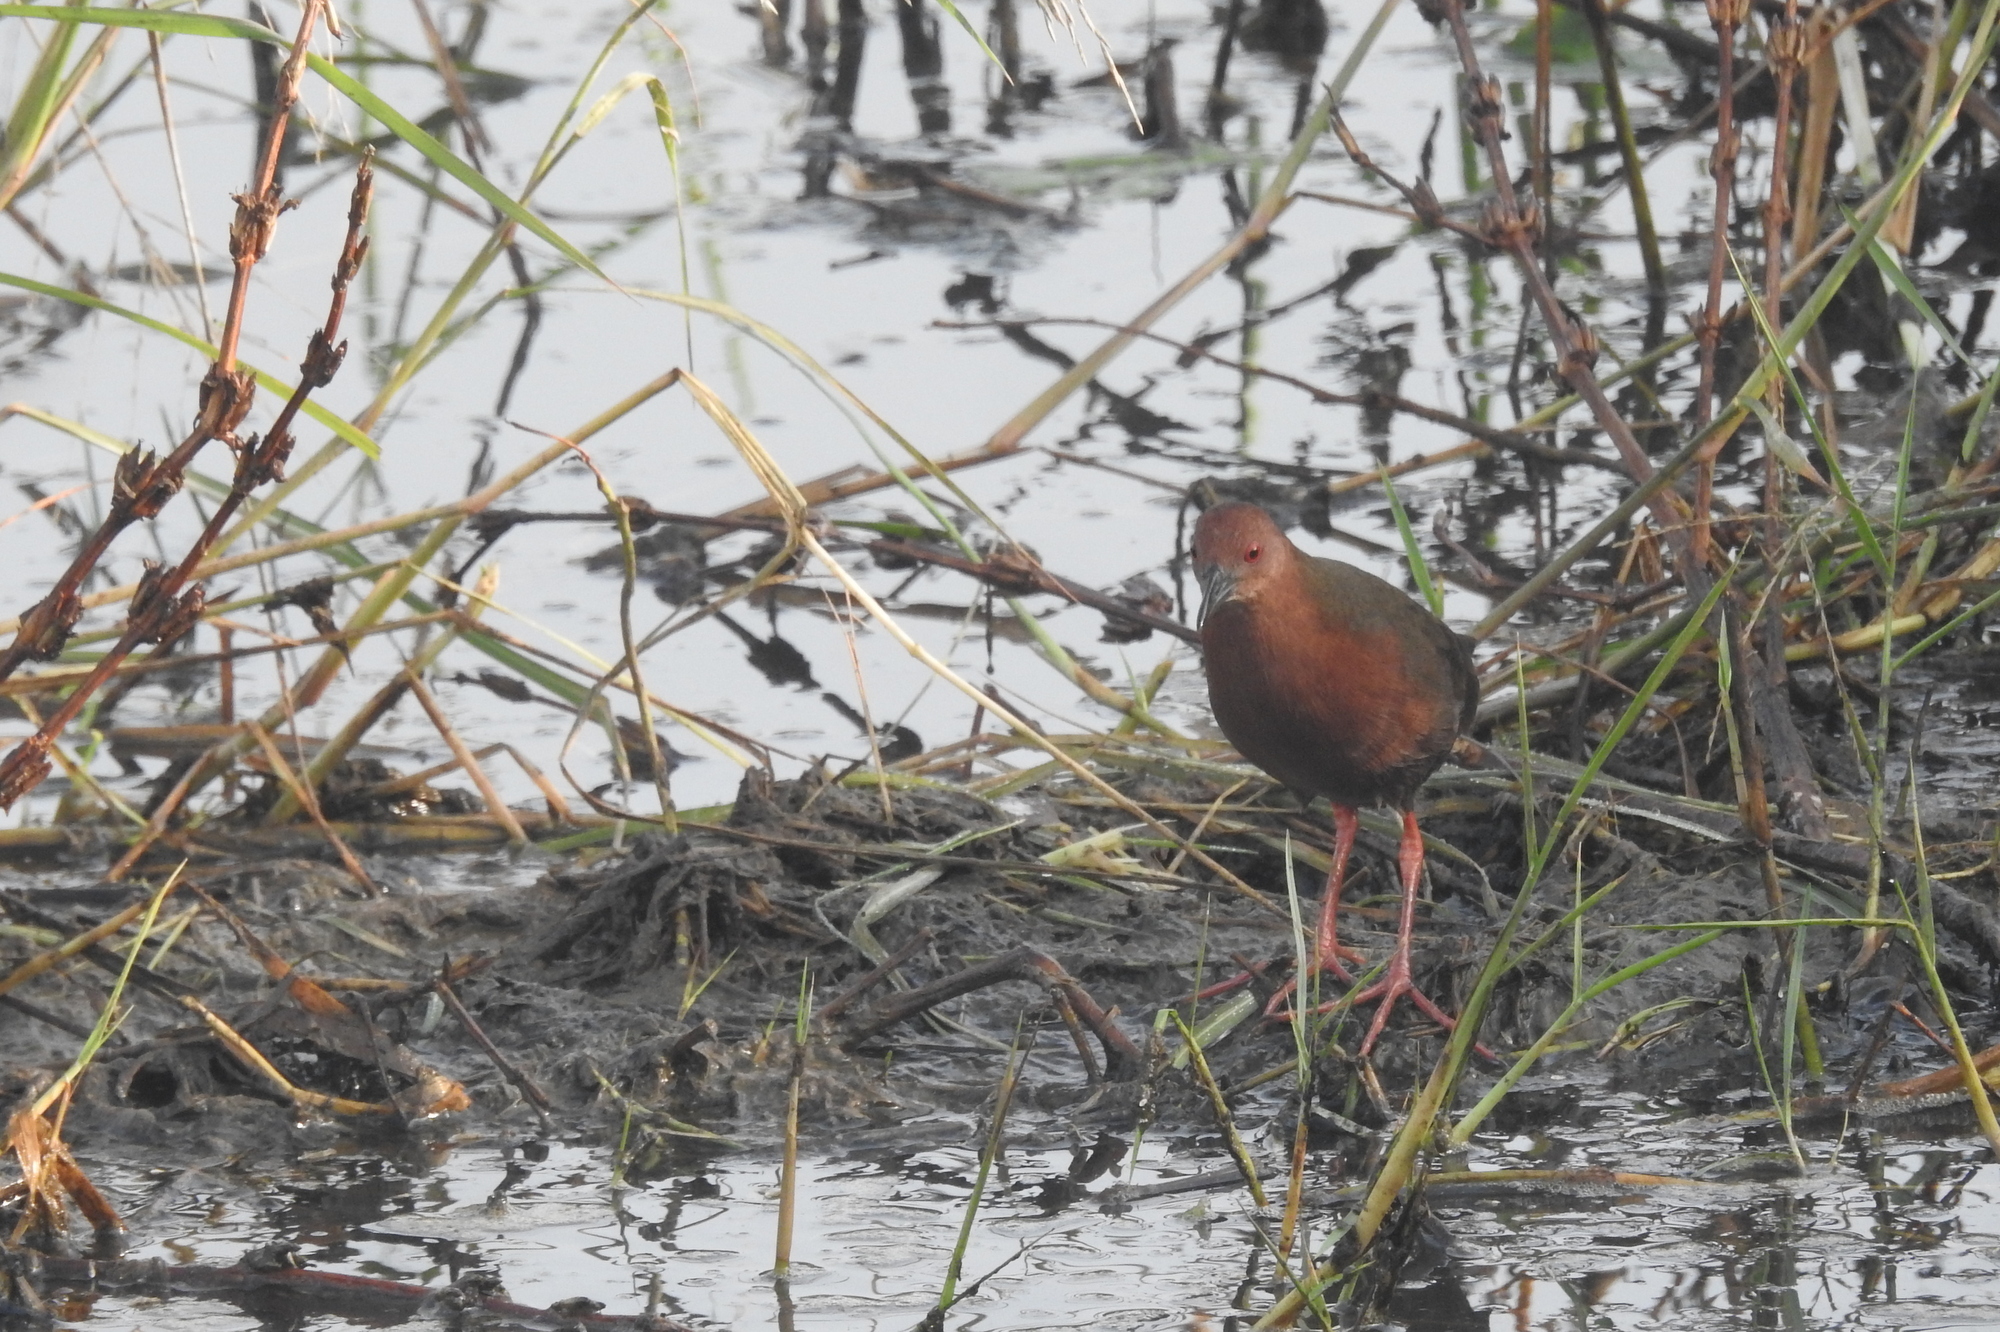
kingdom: Animalia
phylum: Chordata
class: Aves
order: Gruiformes
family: Rallidae
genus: Porzana
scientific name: Porzana fusca
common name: Ruddy-breasted crake
